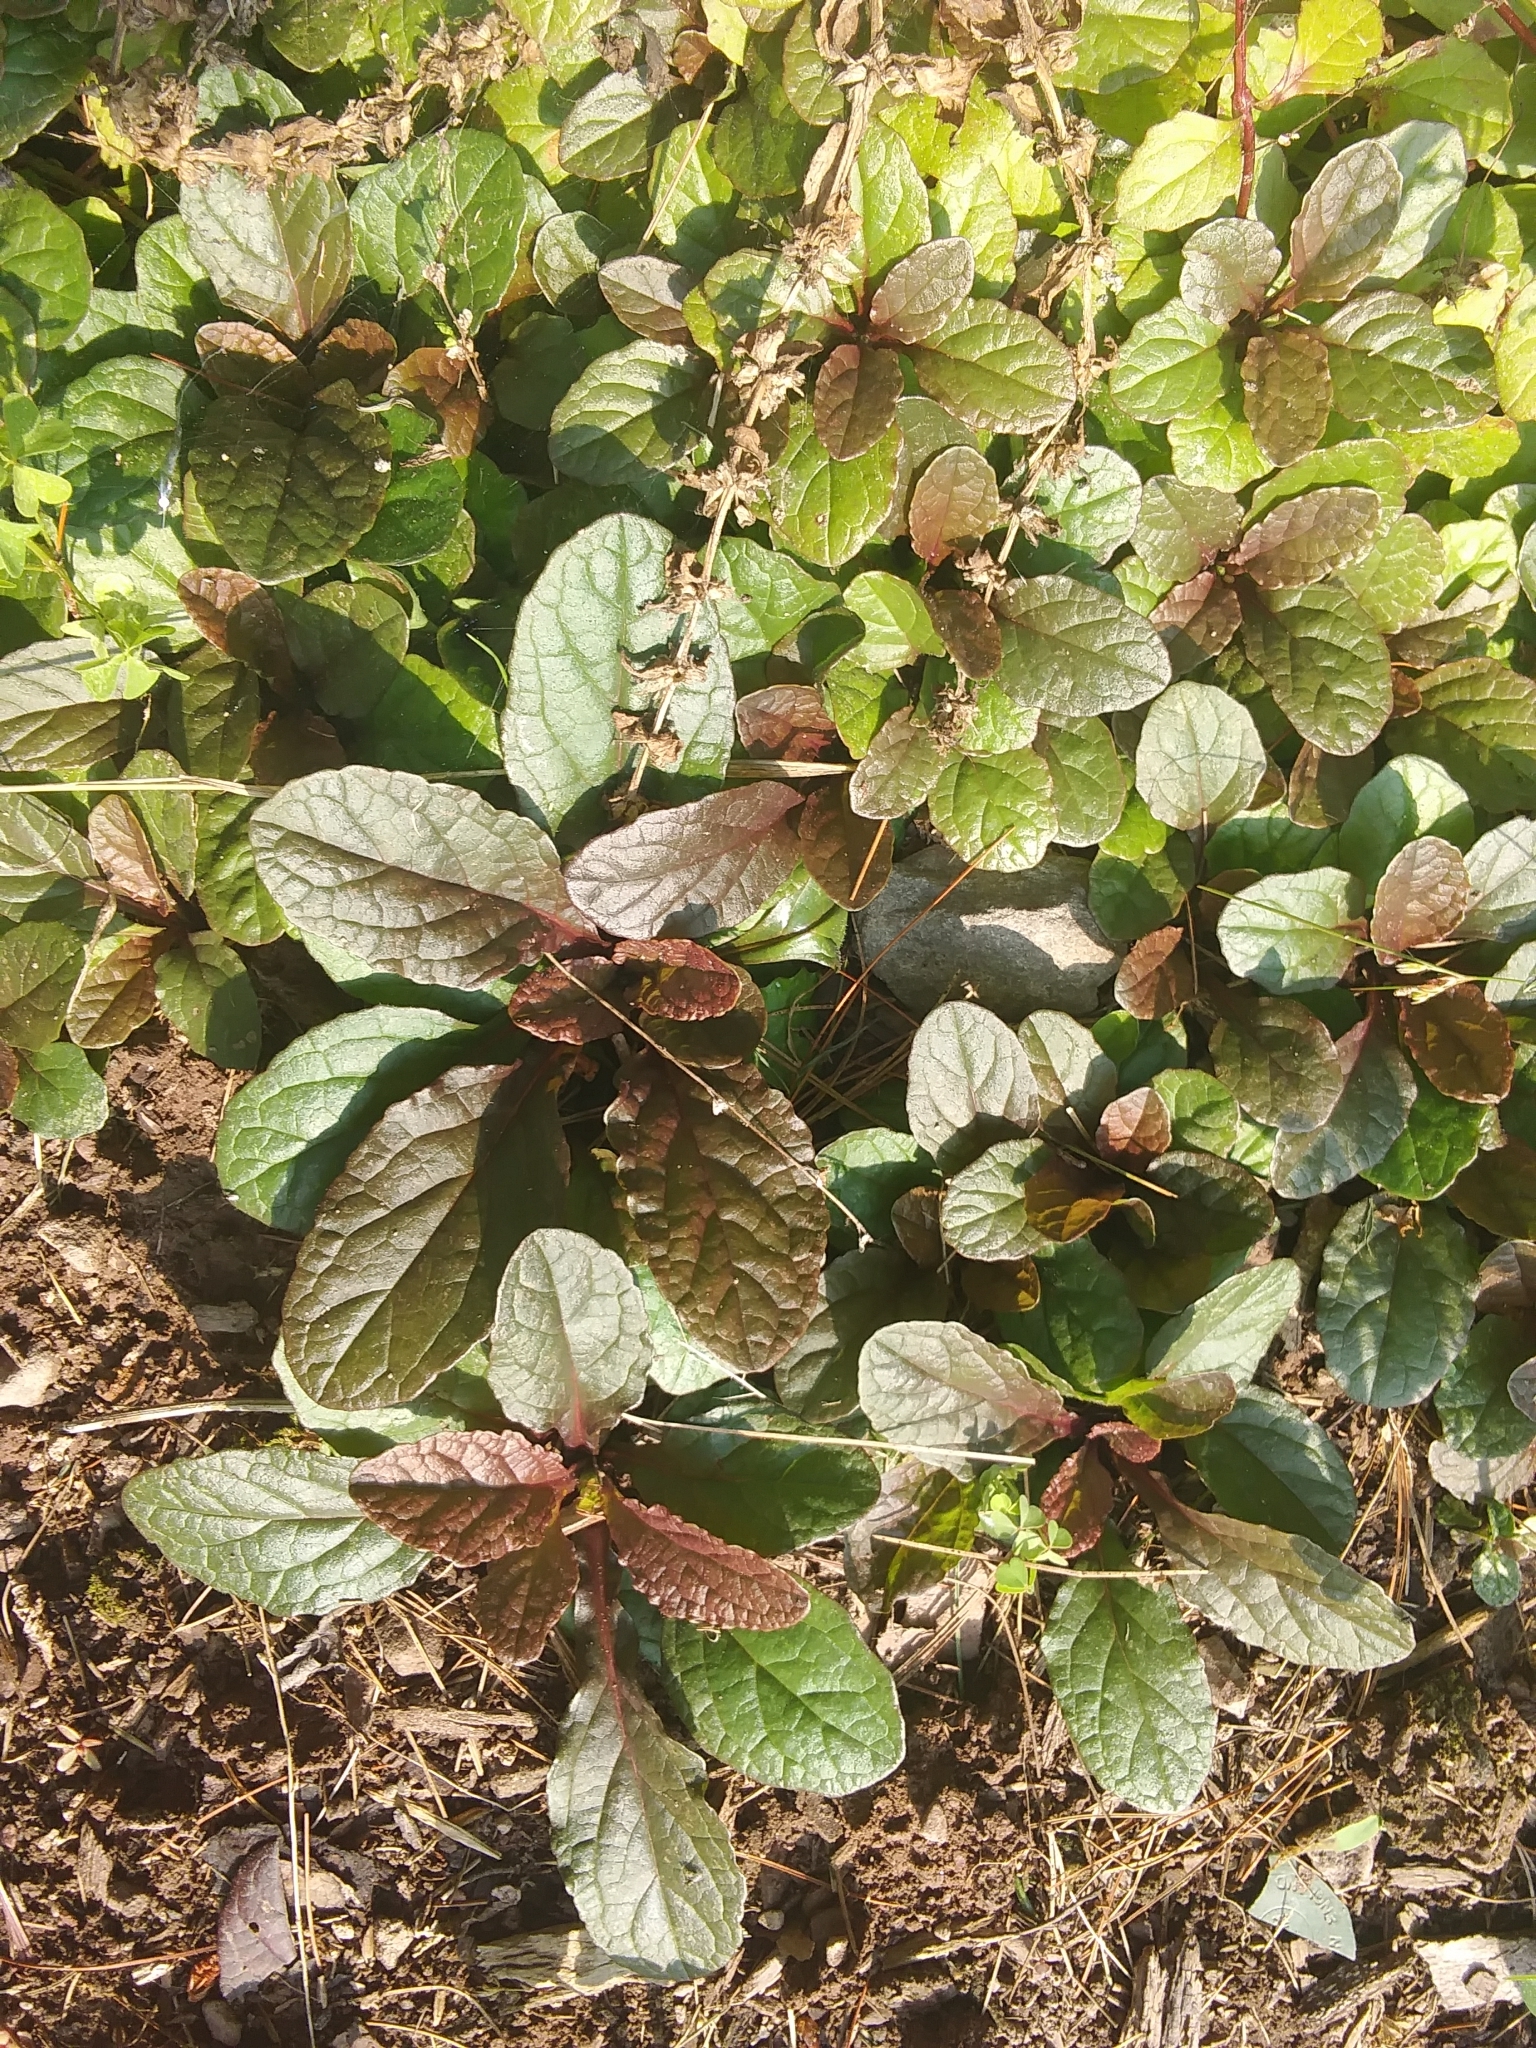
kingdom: Plantae
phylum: Tracheophyta
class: Magnoliopsida
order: Lamiales
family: Lamiaceae
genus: Ajuga
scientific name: Ajuga reptans
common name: Bugle
